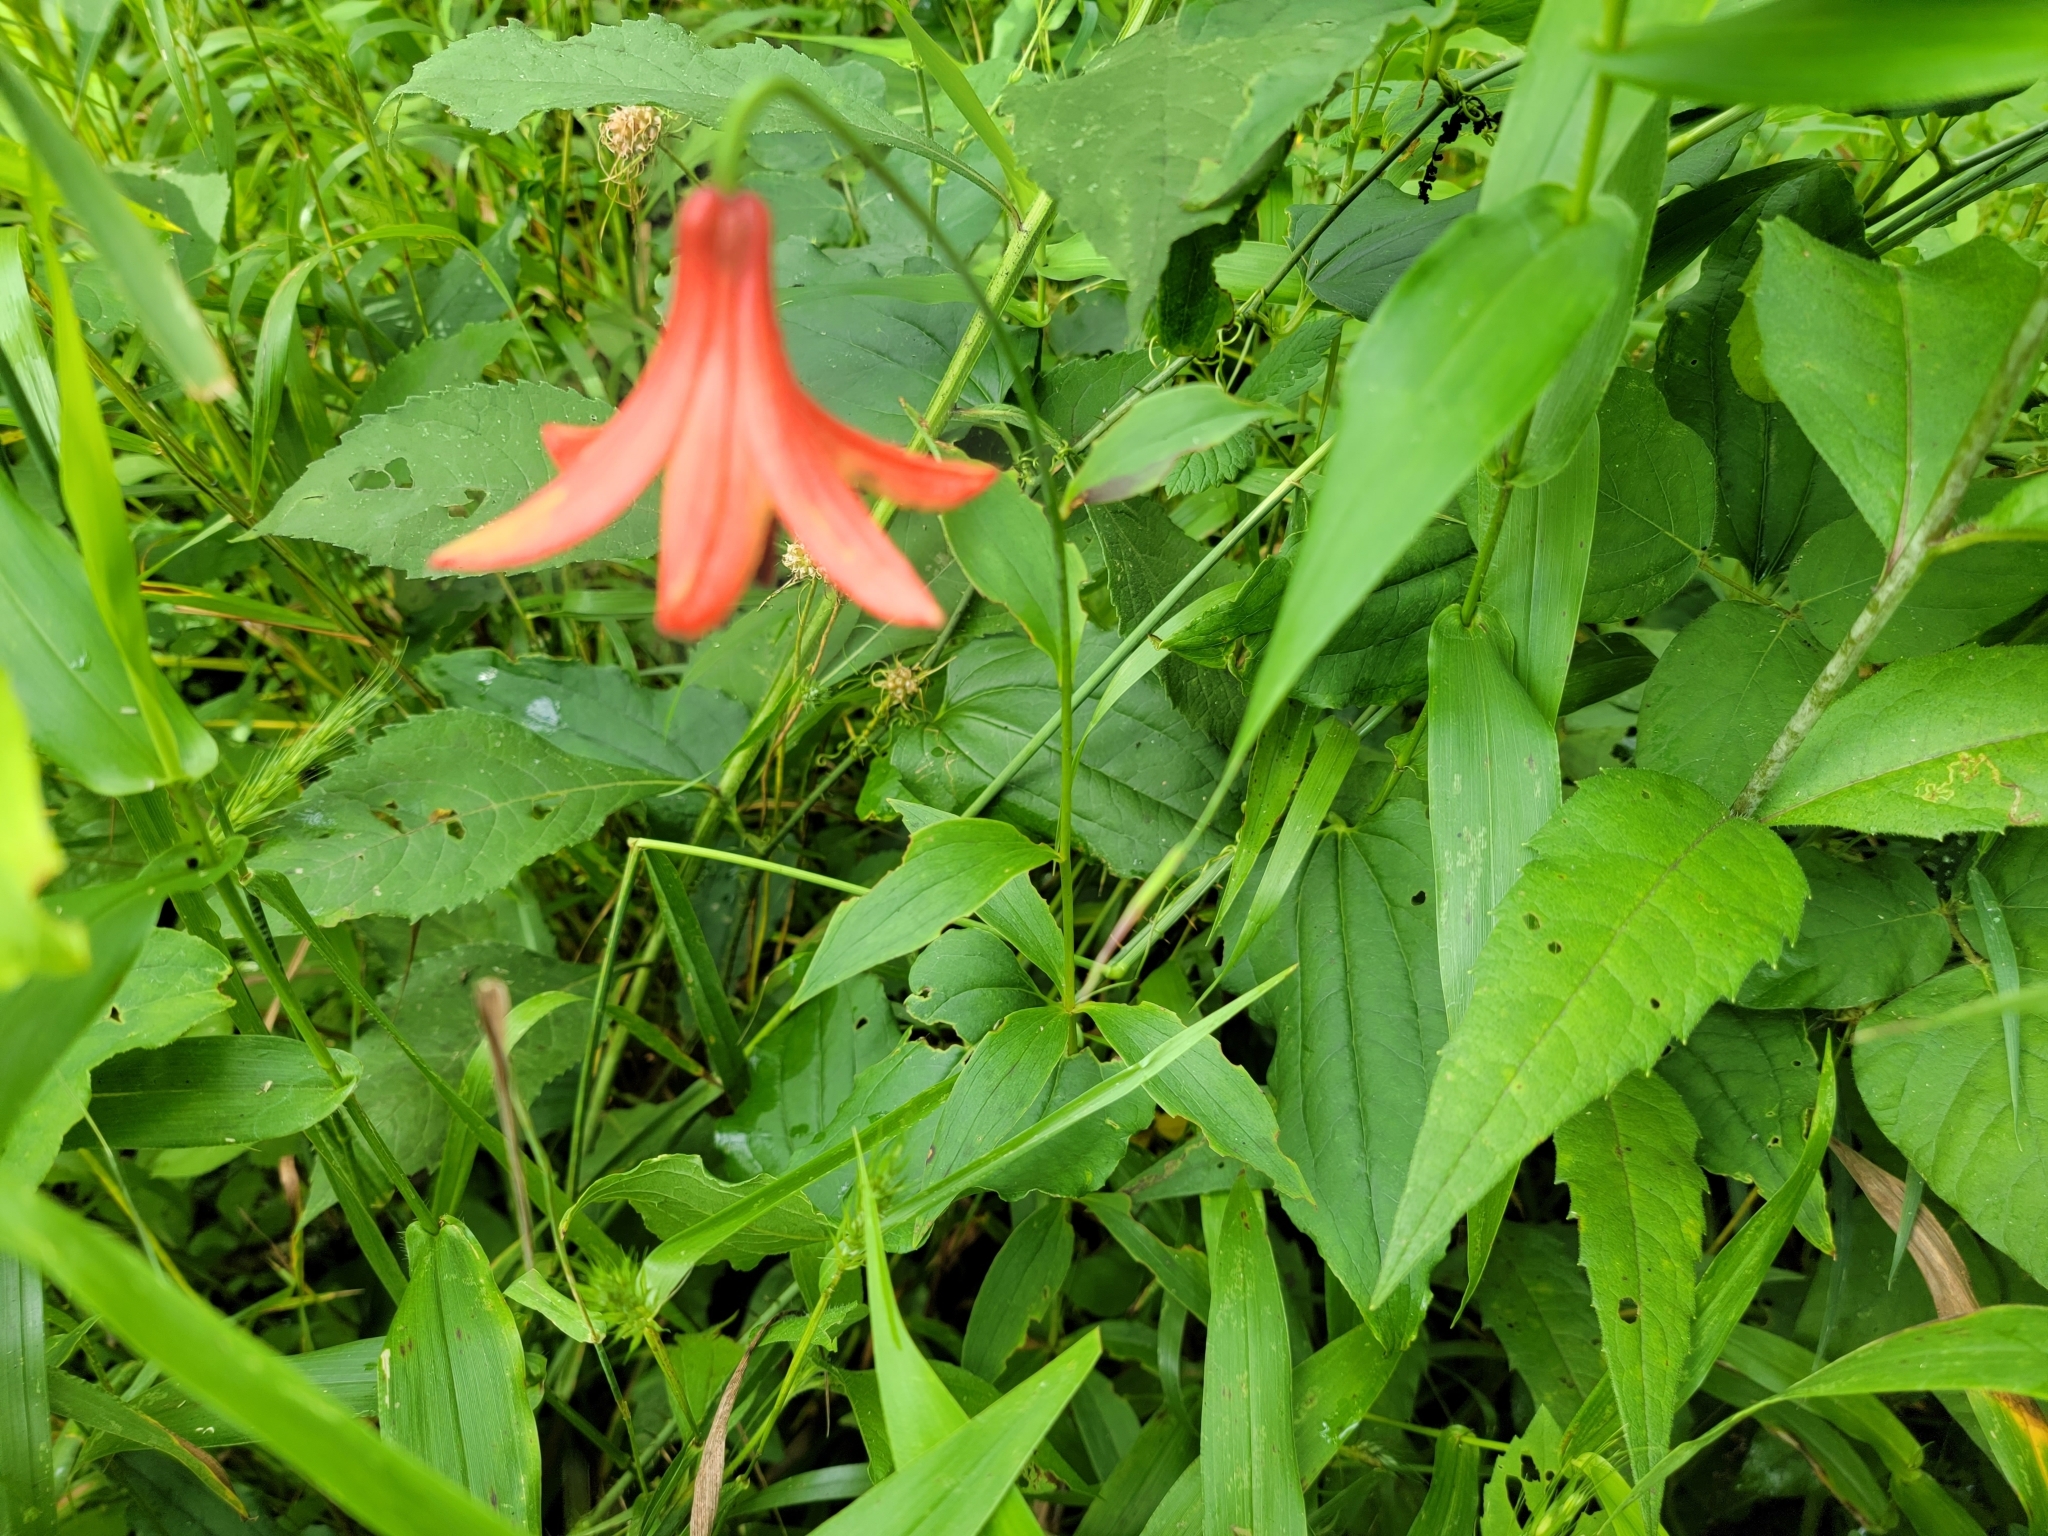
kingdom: Plantae
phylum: Tracheophyta
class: Liliopsida
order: Liliales
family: Liliaceae
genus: Lilium
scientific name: Lilium canadense
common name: Canada lily
